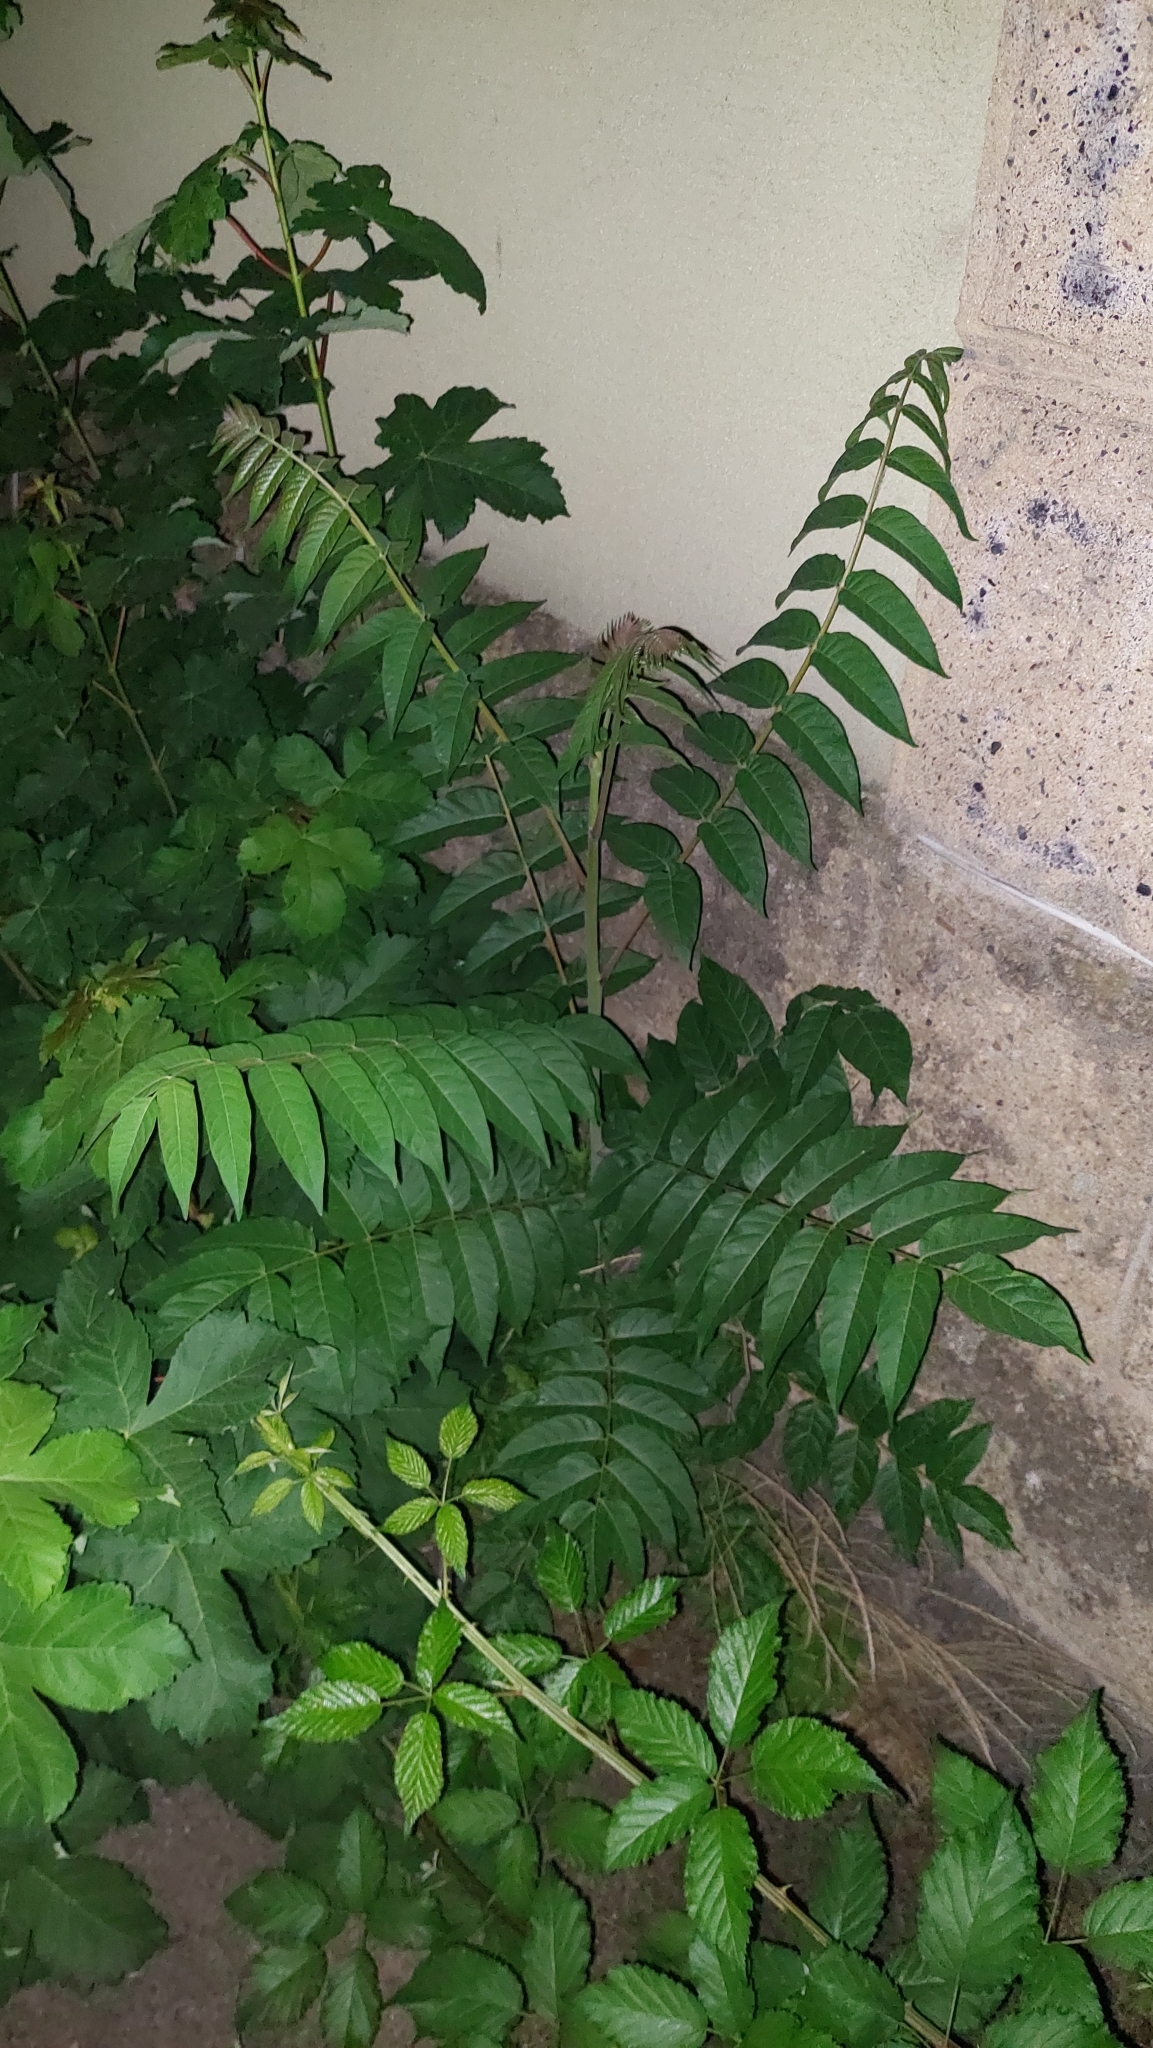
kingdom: Plantae
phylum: Tracheophyta
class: Magnoliopsida
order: Sapindales
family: Simaroubaceae
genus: Ailanthus
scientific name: Ailanthus altissima
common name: Tree-of-heaven
